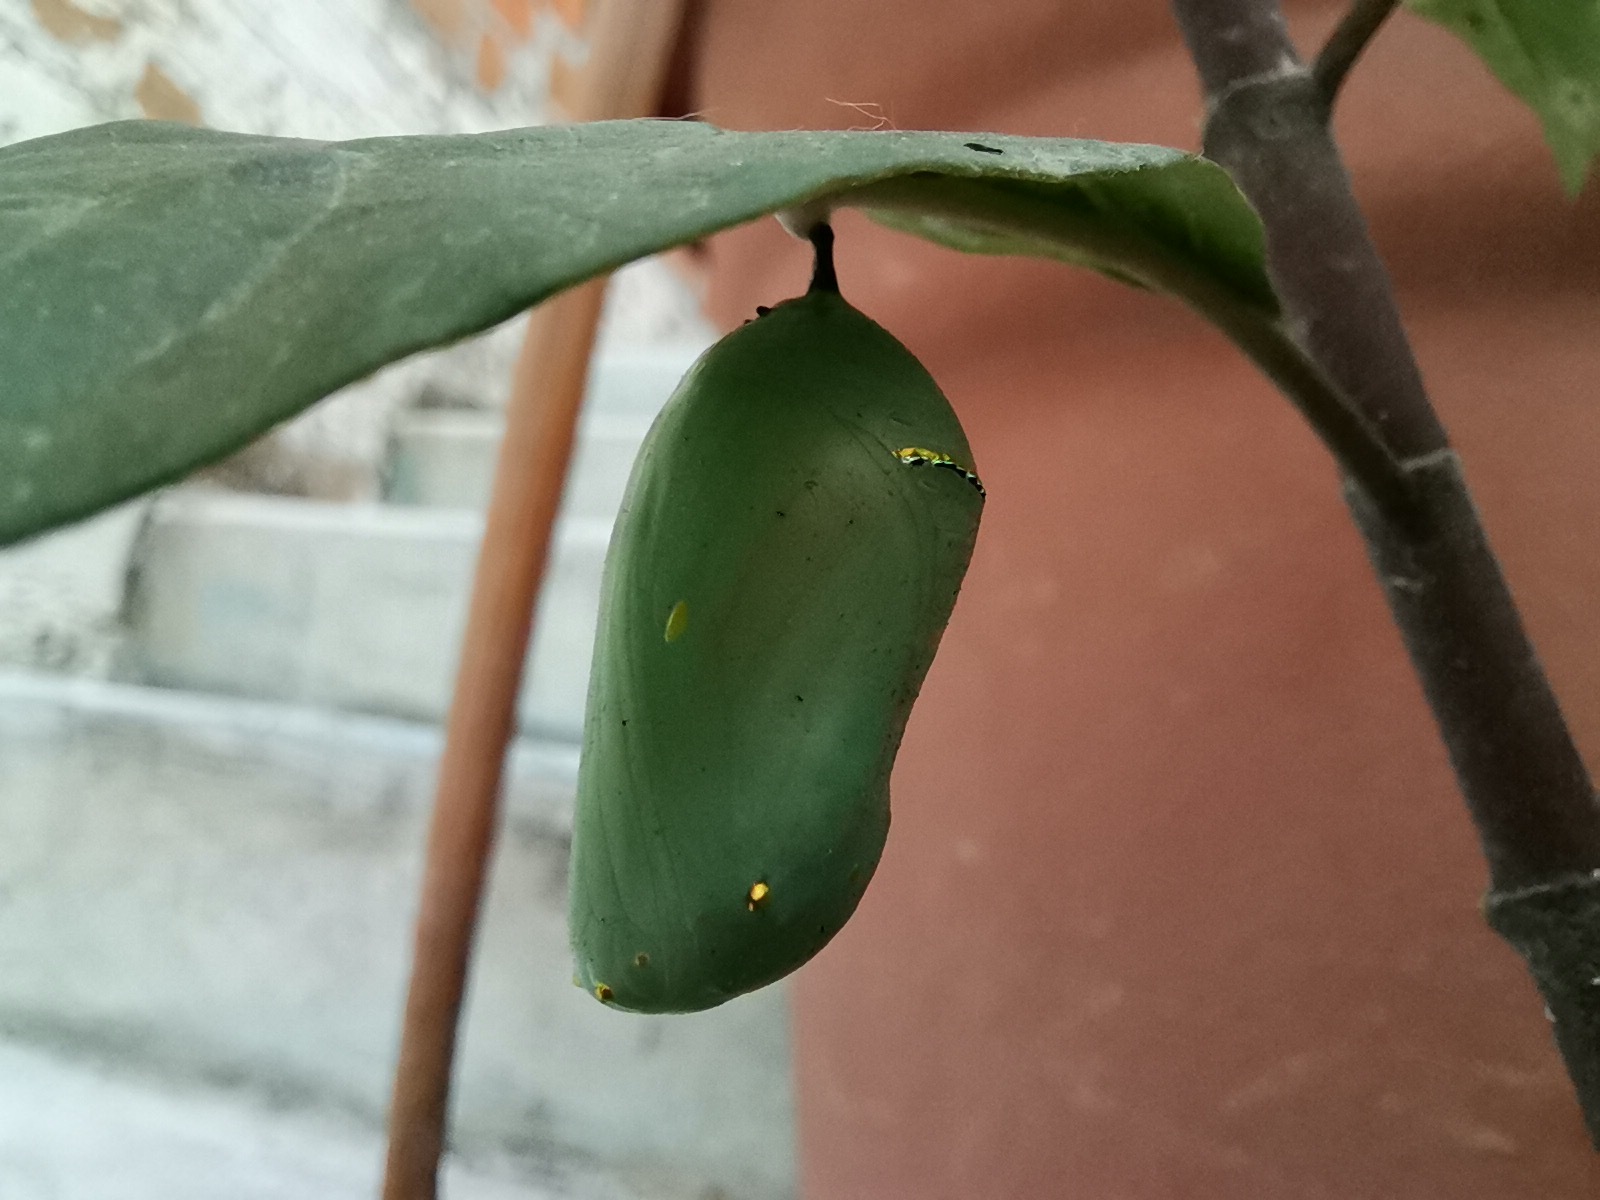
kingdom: Animalia
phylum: Arthropoda
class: Insecta
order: Lepidoptera
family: Nymphalidae
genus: Danaus
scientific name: Danaus plexippus
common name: Monarch
